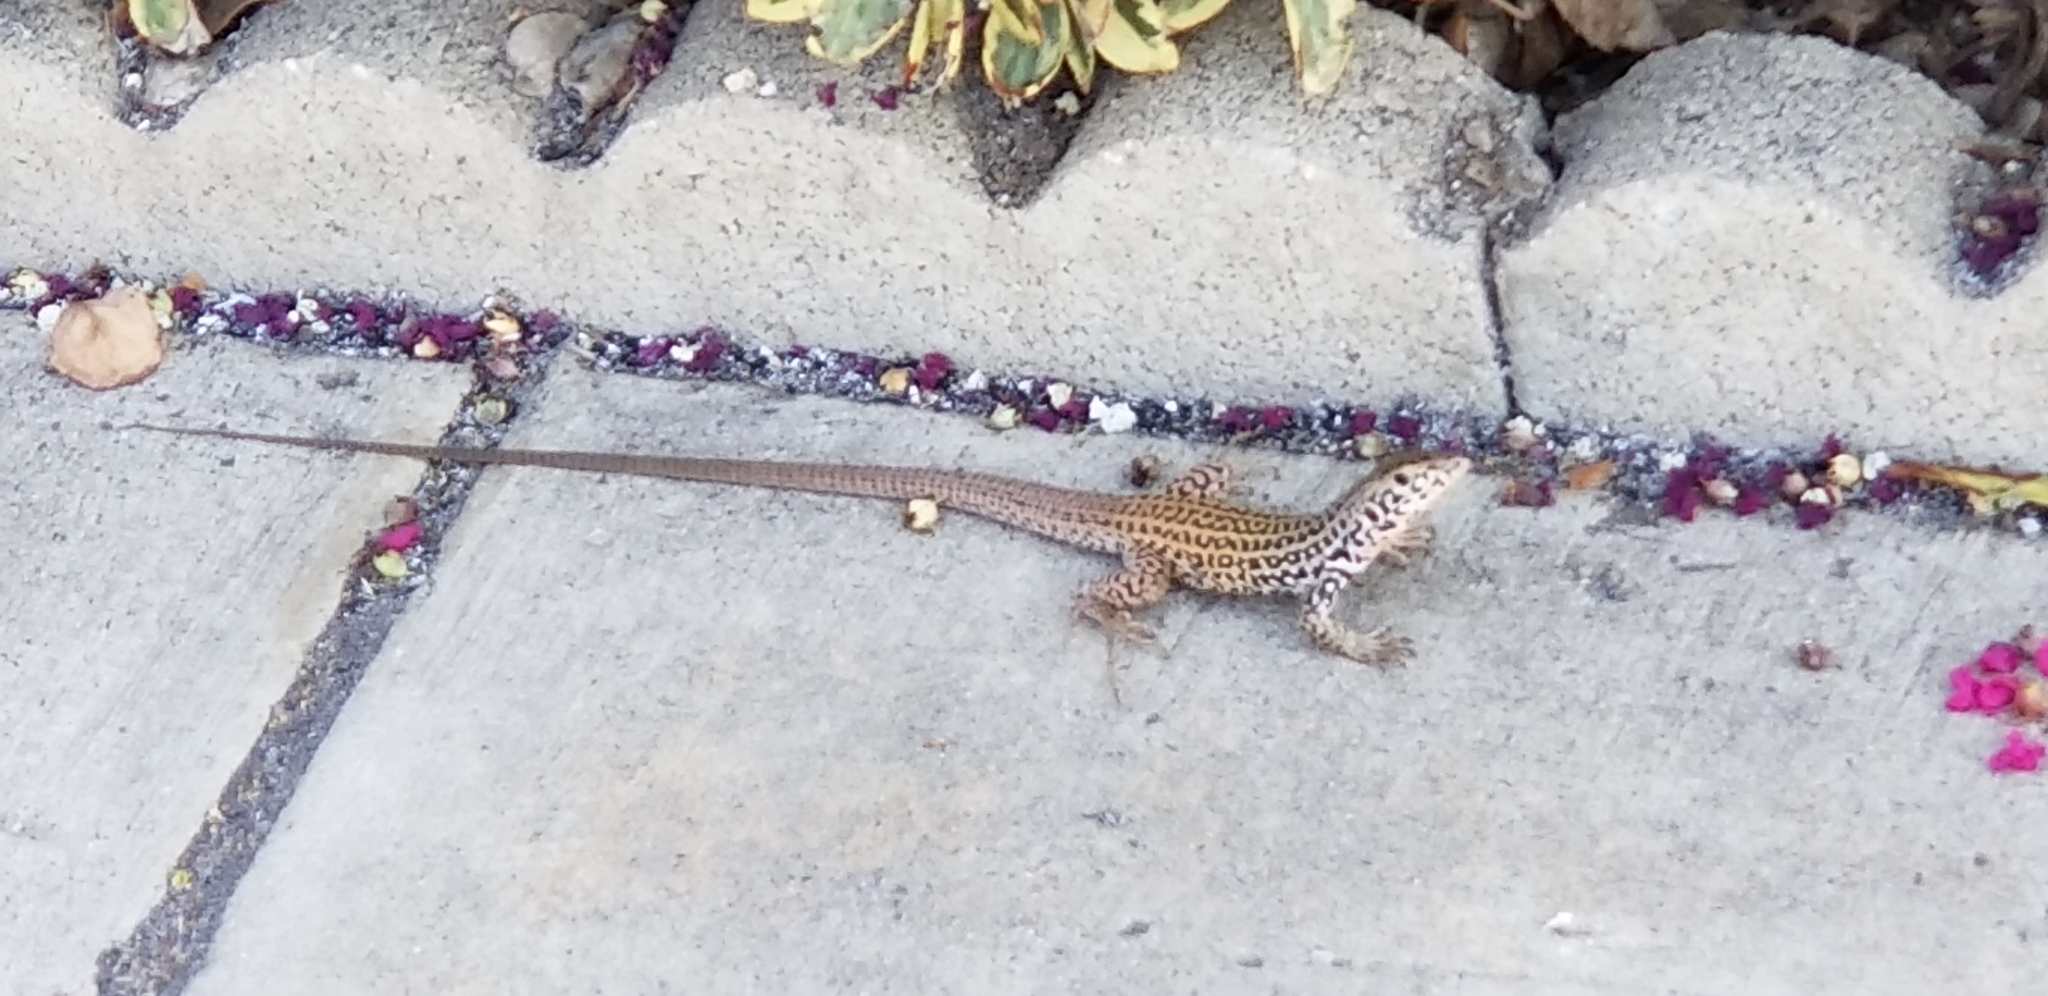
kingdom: Animalia
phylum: Chordata
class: Squamata
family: Teiidae
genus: Aspidoscelis
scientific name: Aspidoscelis tigris
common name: Tiger whiptail
